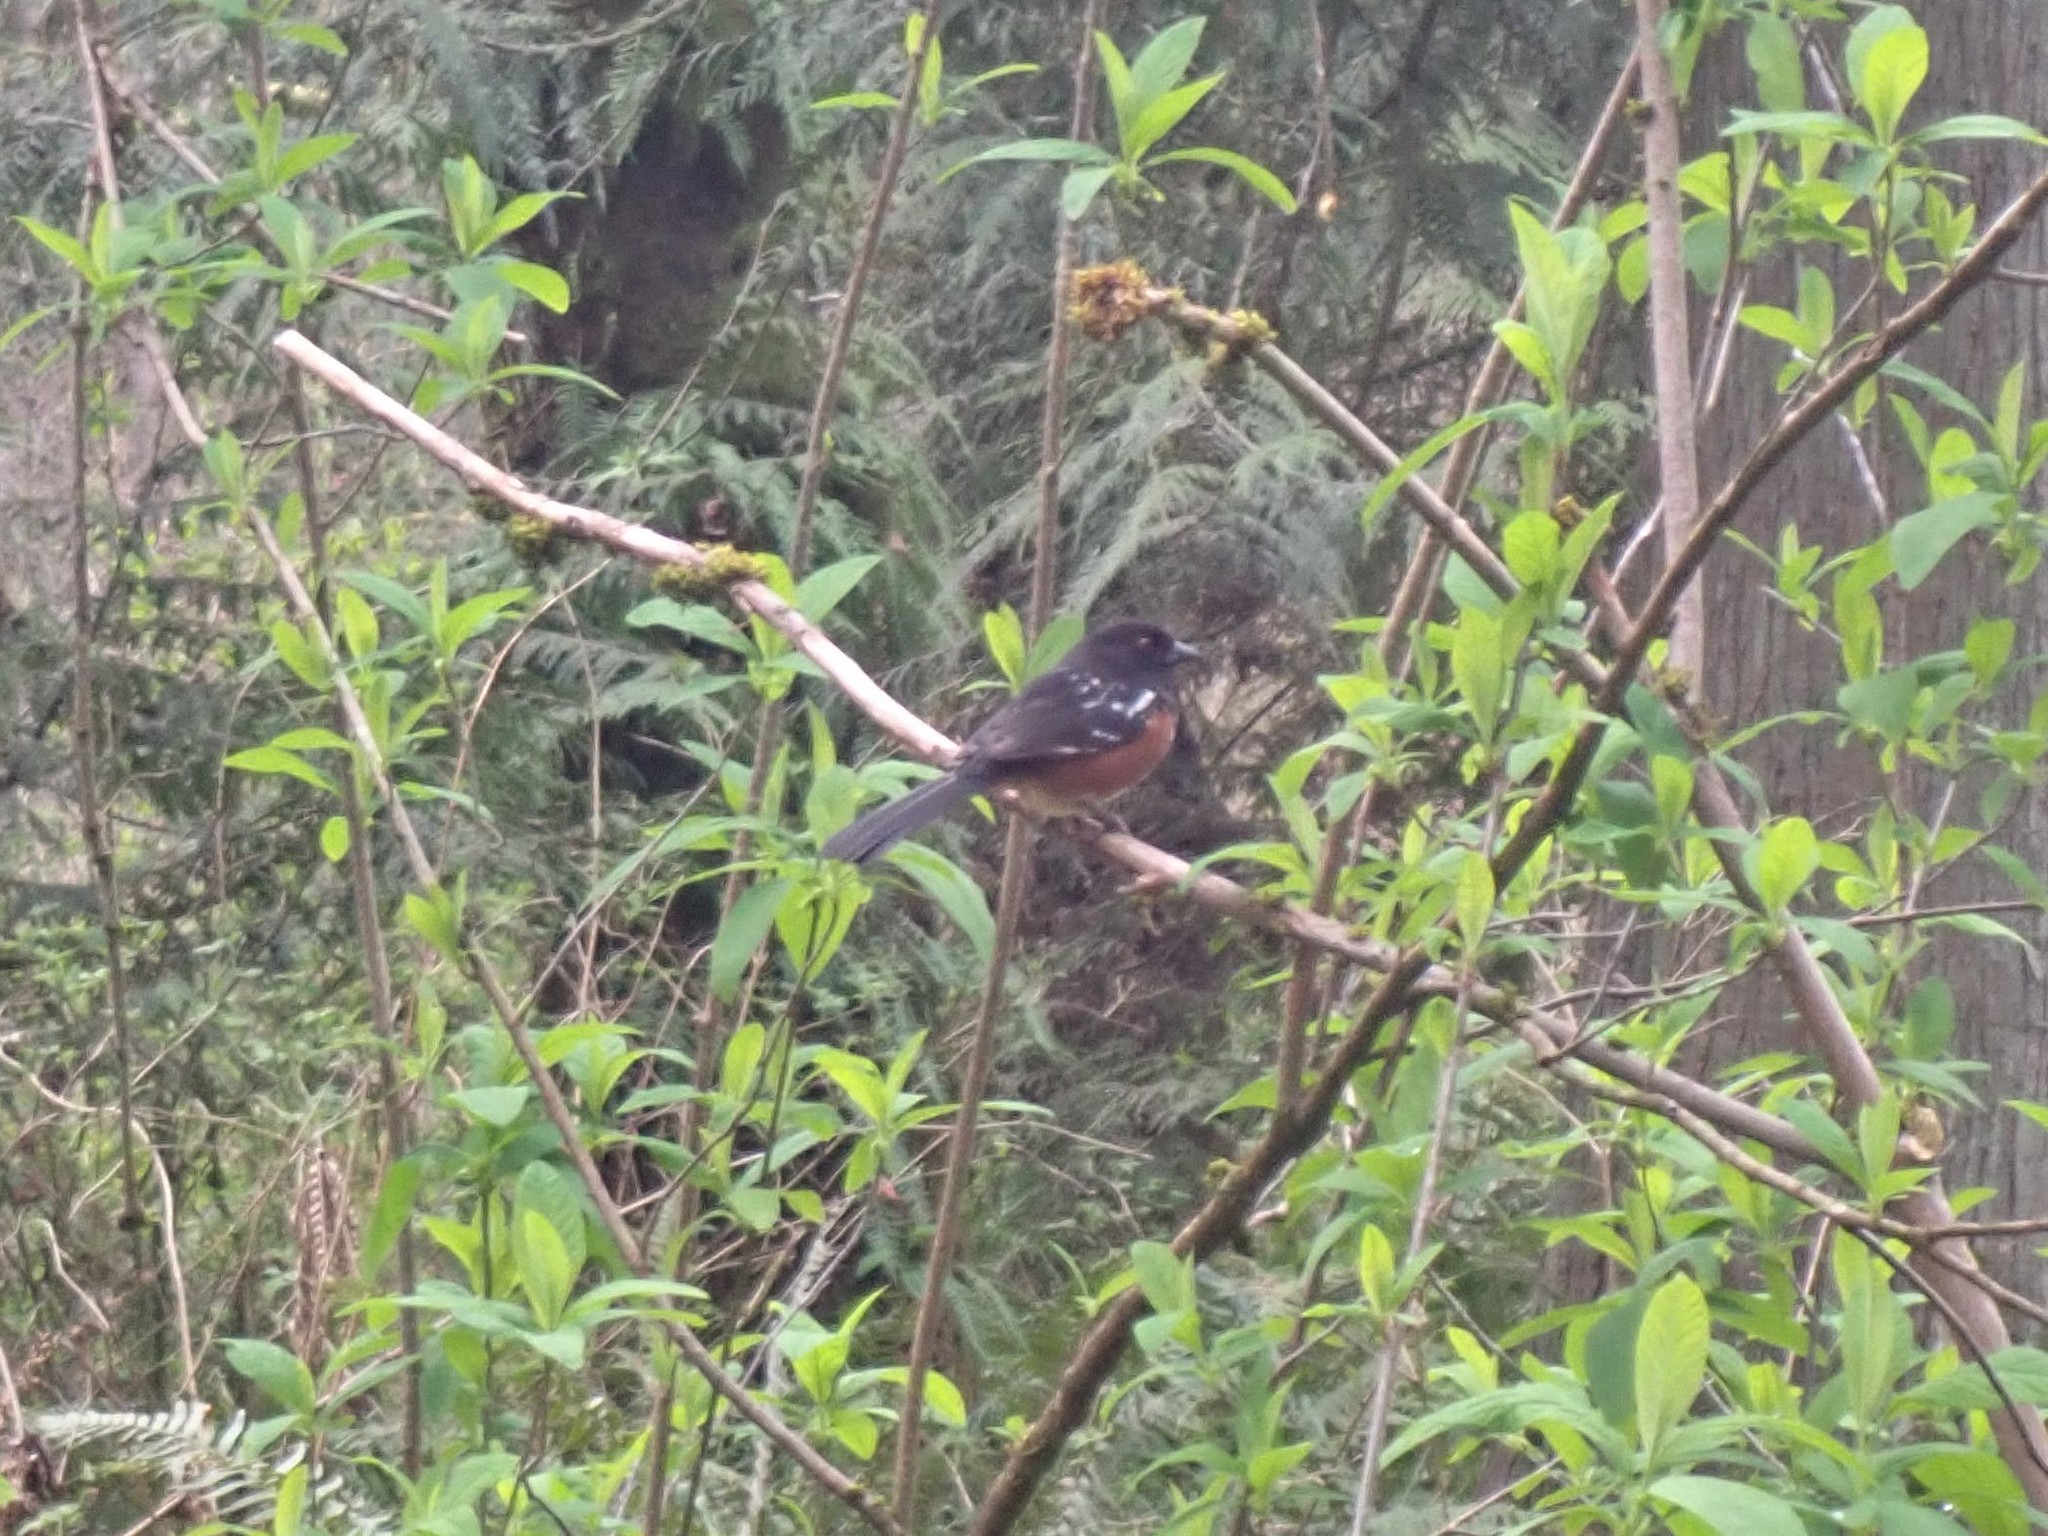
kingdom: Animalia
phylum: Chordata
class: Aves
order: Passeriformes
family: Passerellidae
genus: Pipilo
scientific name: Pipilo maculatus
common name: Spotted towhee
